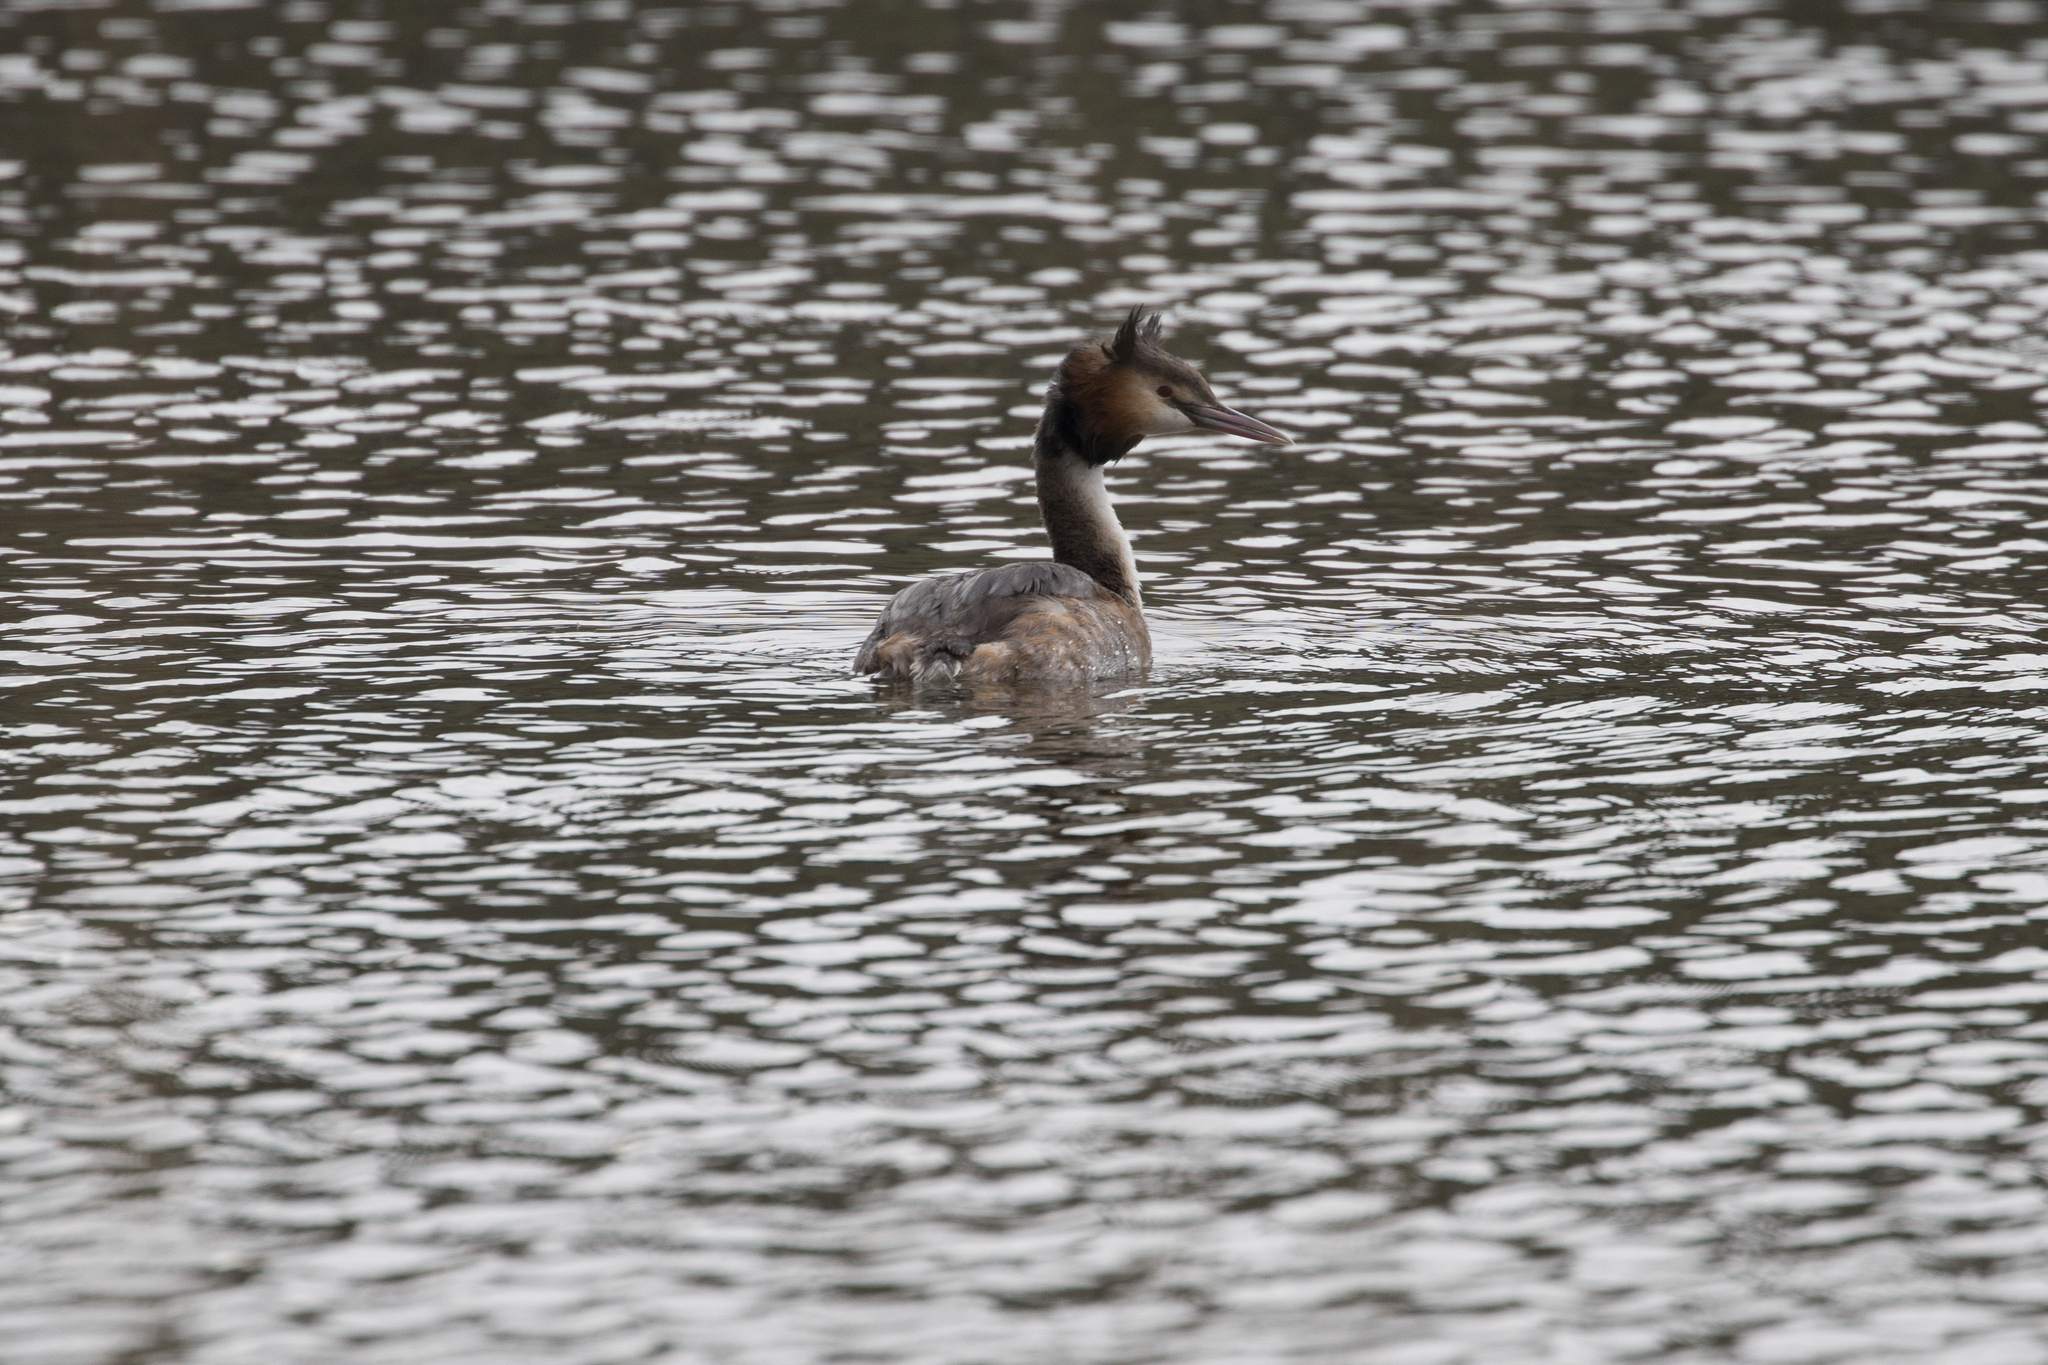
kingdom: Animalia
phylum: Chordata
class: Aves
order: Podicipediformes
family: Podicipedidae
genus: Podiceps
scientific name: Podiceps cristatus
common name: Great crested grebe
